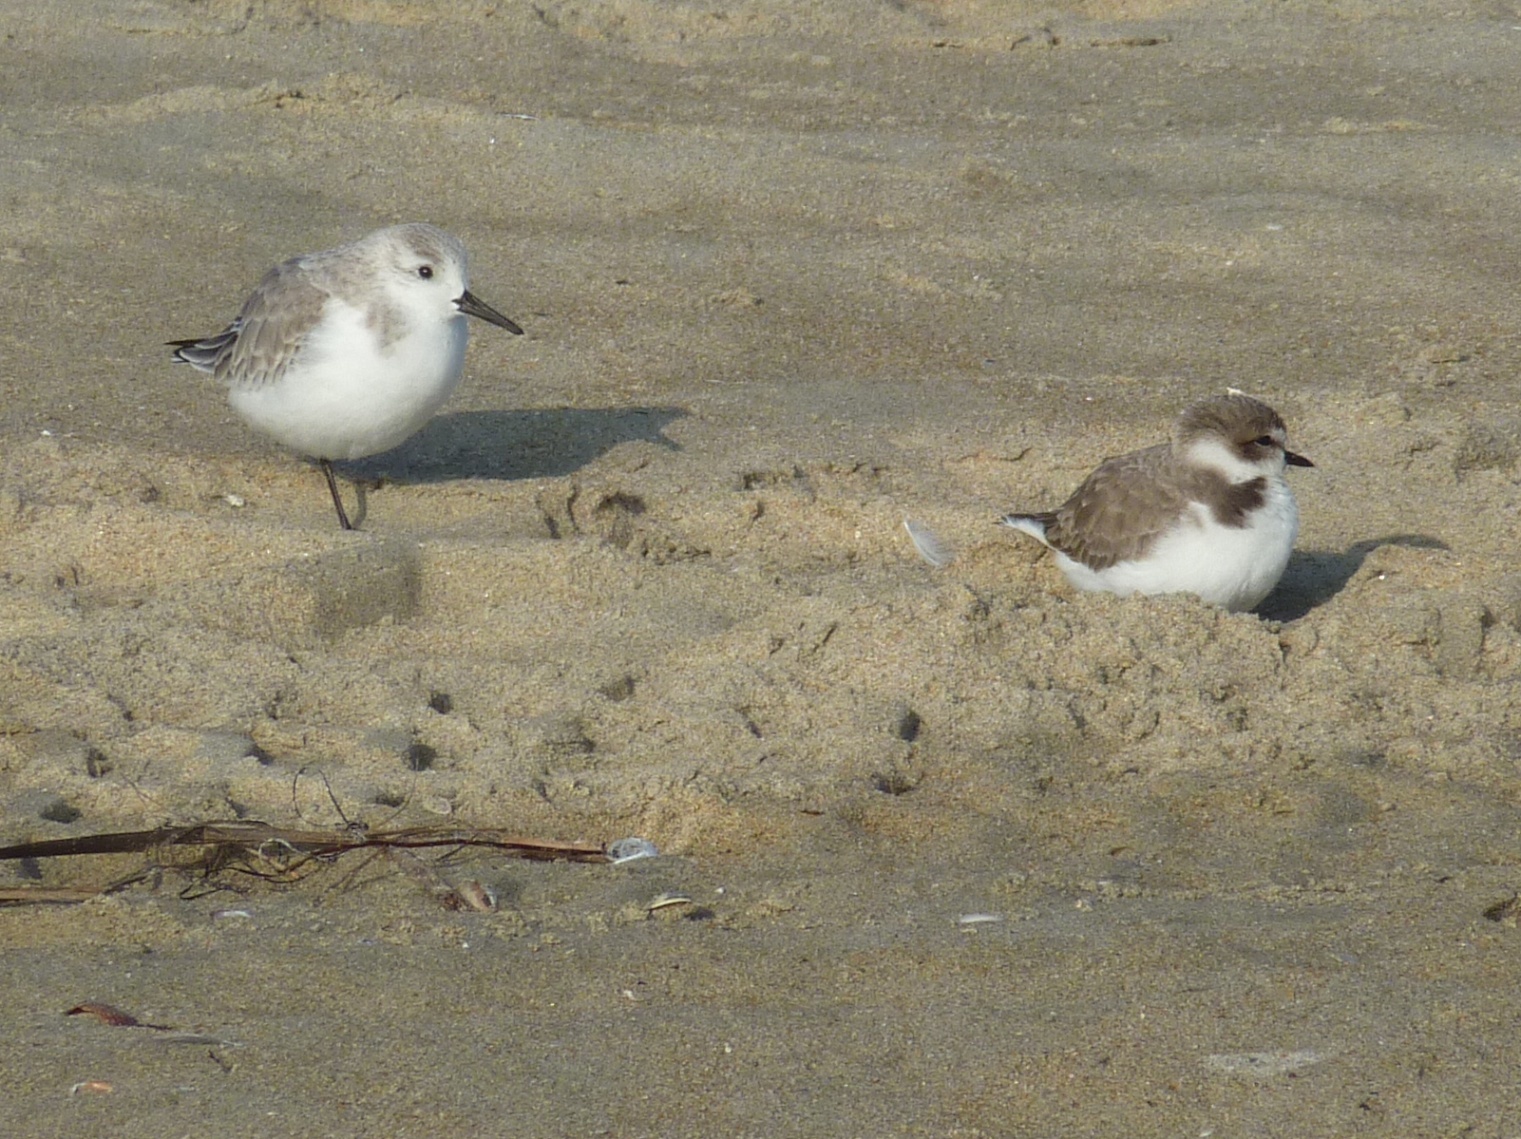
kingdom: Animalia
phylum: Chordata
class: Aves
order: Charadriiformes
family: Scolopacidae
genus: Calidris
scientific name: Calidris alba
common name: Sanderling
